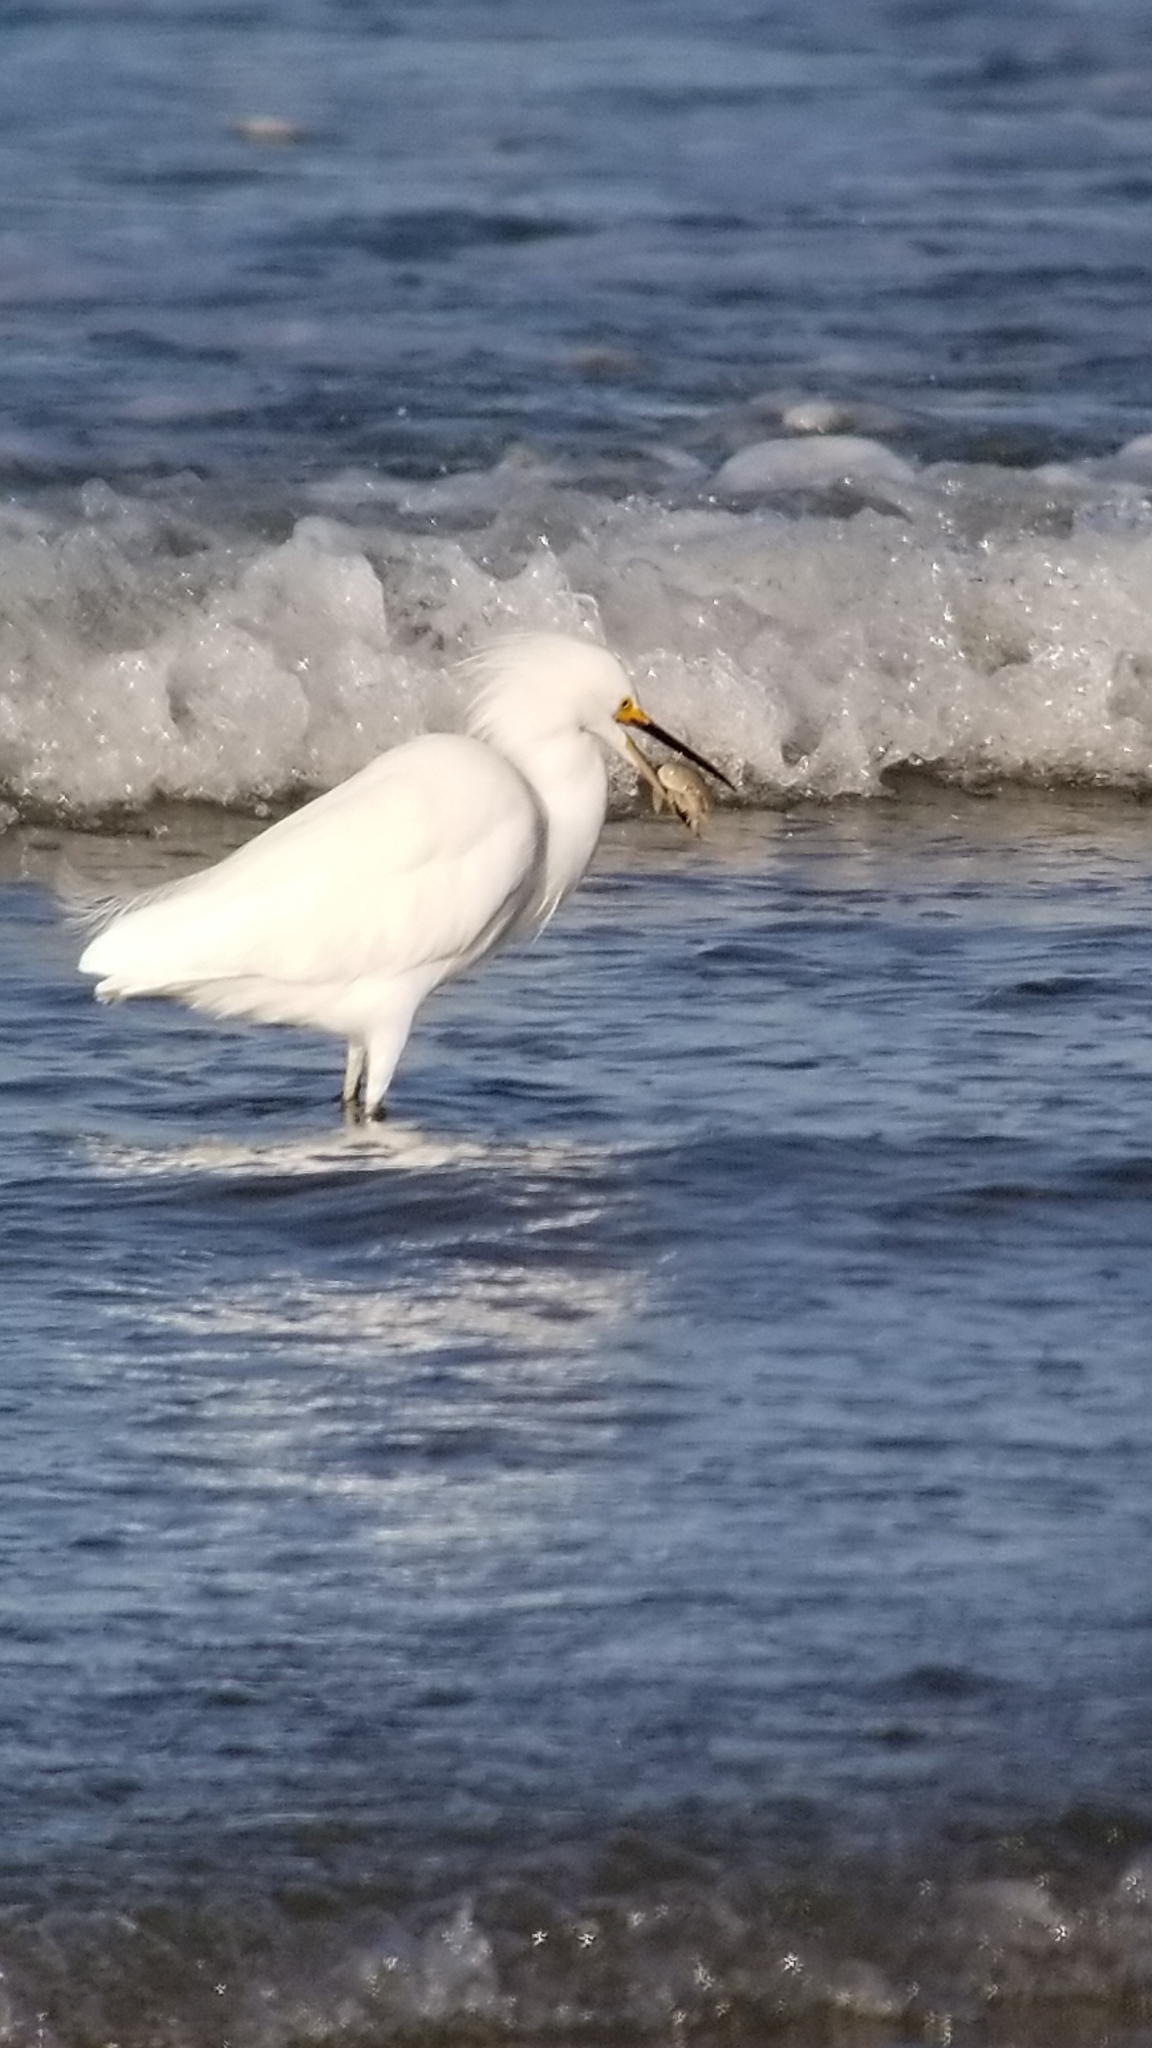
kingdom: Animalia
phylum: Chordata
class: Aves
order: Pelecaniformes
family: Ardeidae
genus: Egretta
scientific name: Egretta thula
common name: Snowy egret
